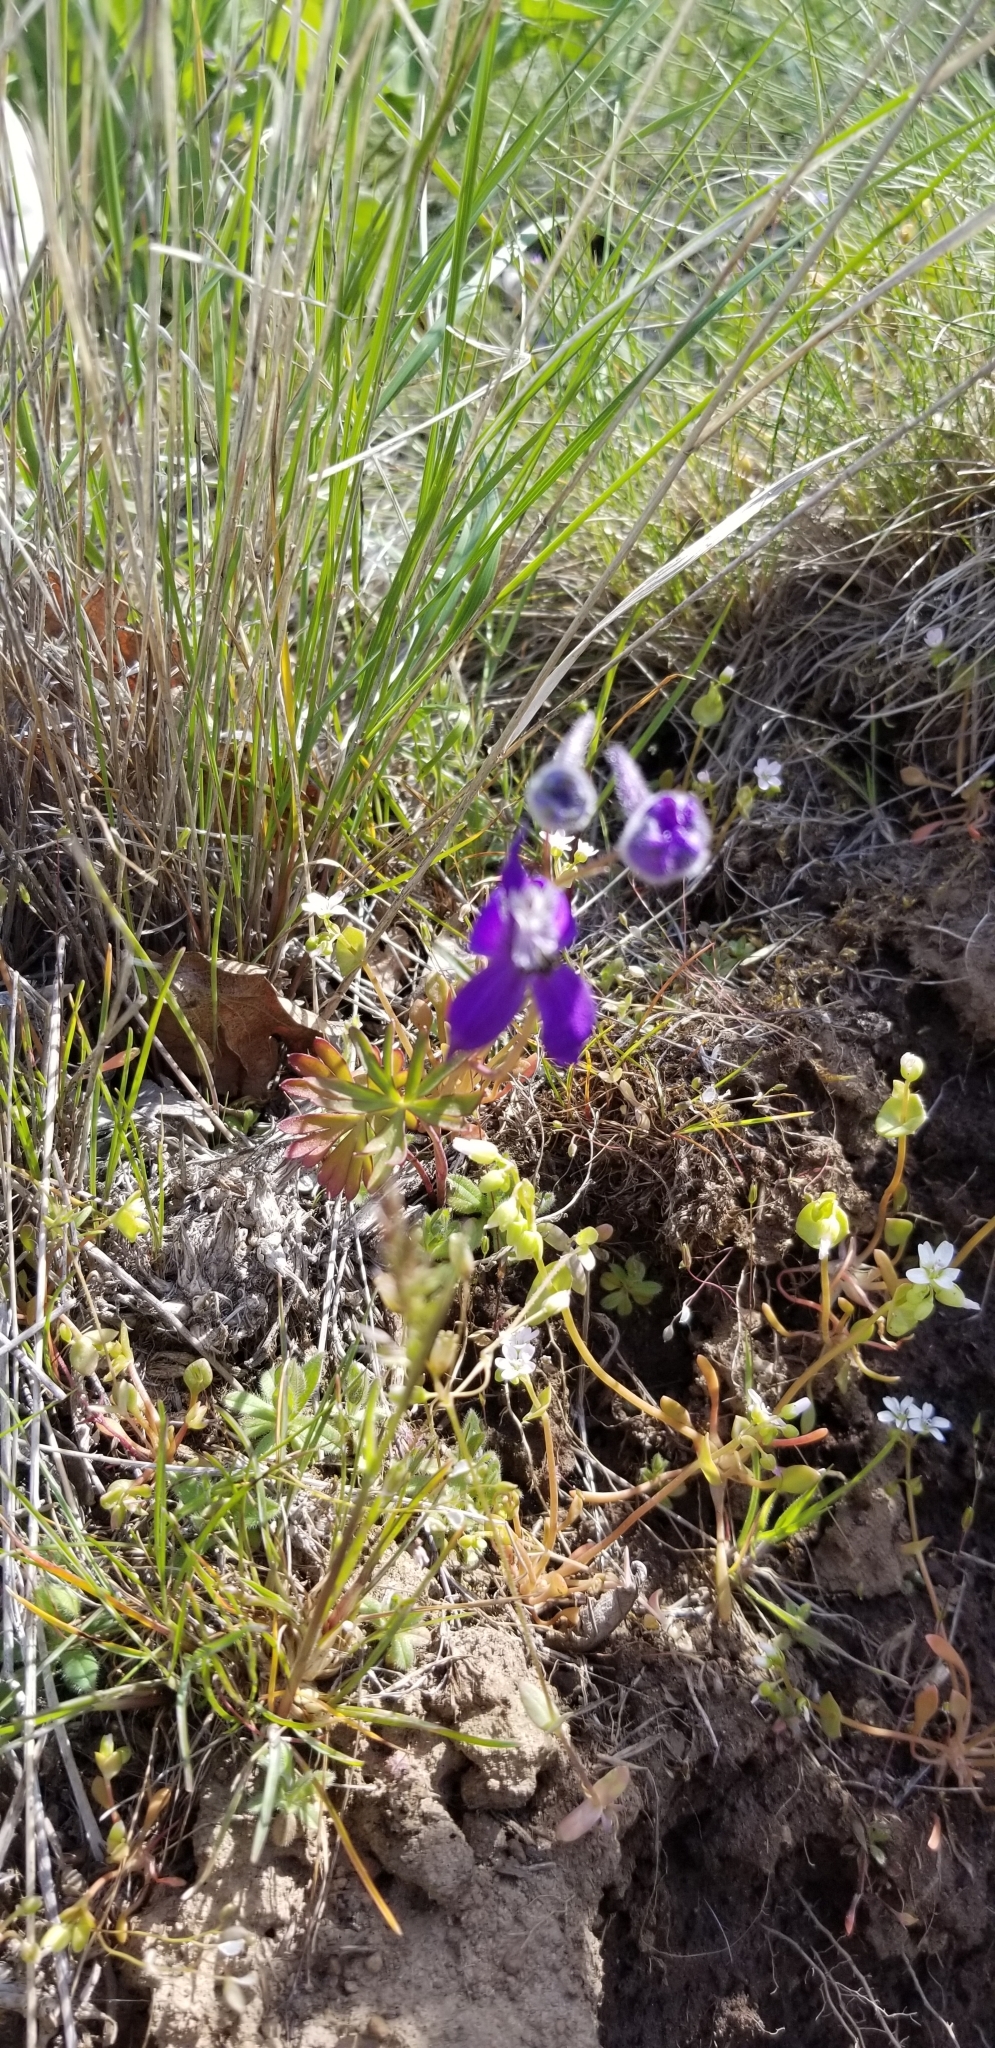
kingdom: Plantae
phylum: Tracheophyta
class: Magnoliopsida
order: Ranunculales
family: Ranunculaceae
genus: Delphinium
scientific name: Delphinium nuttallianum
